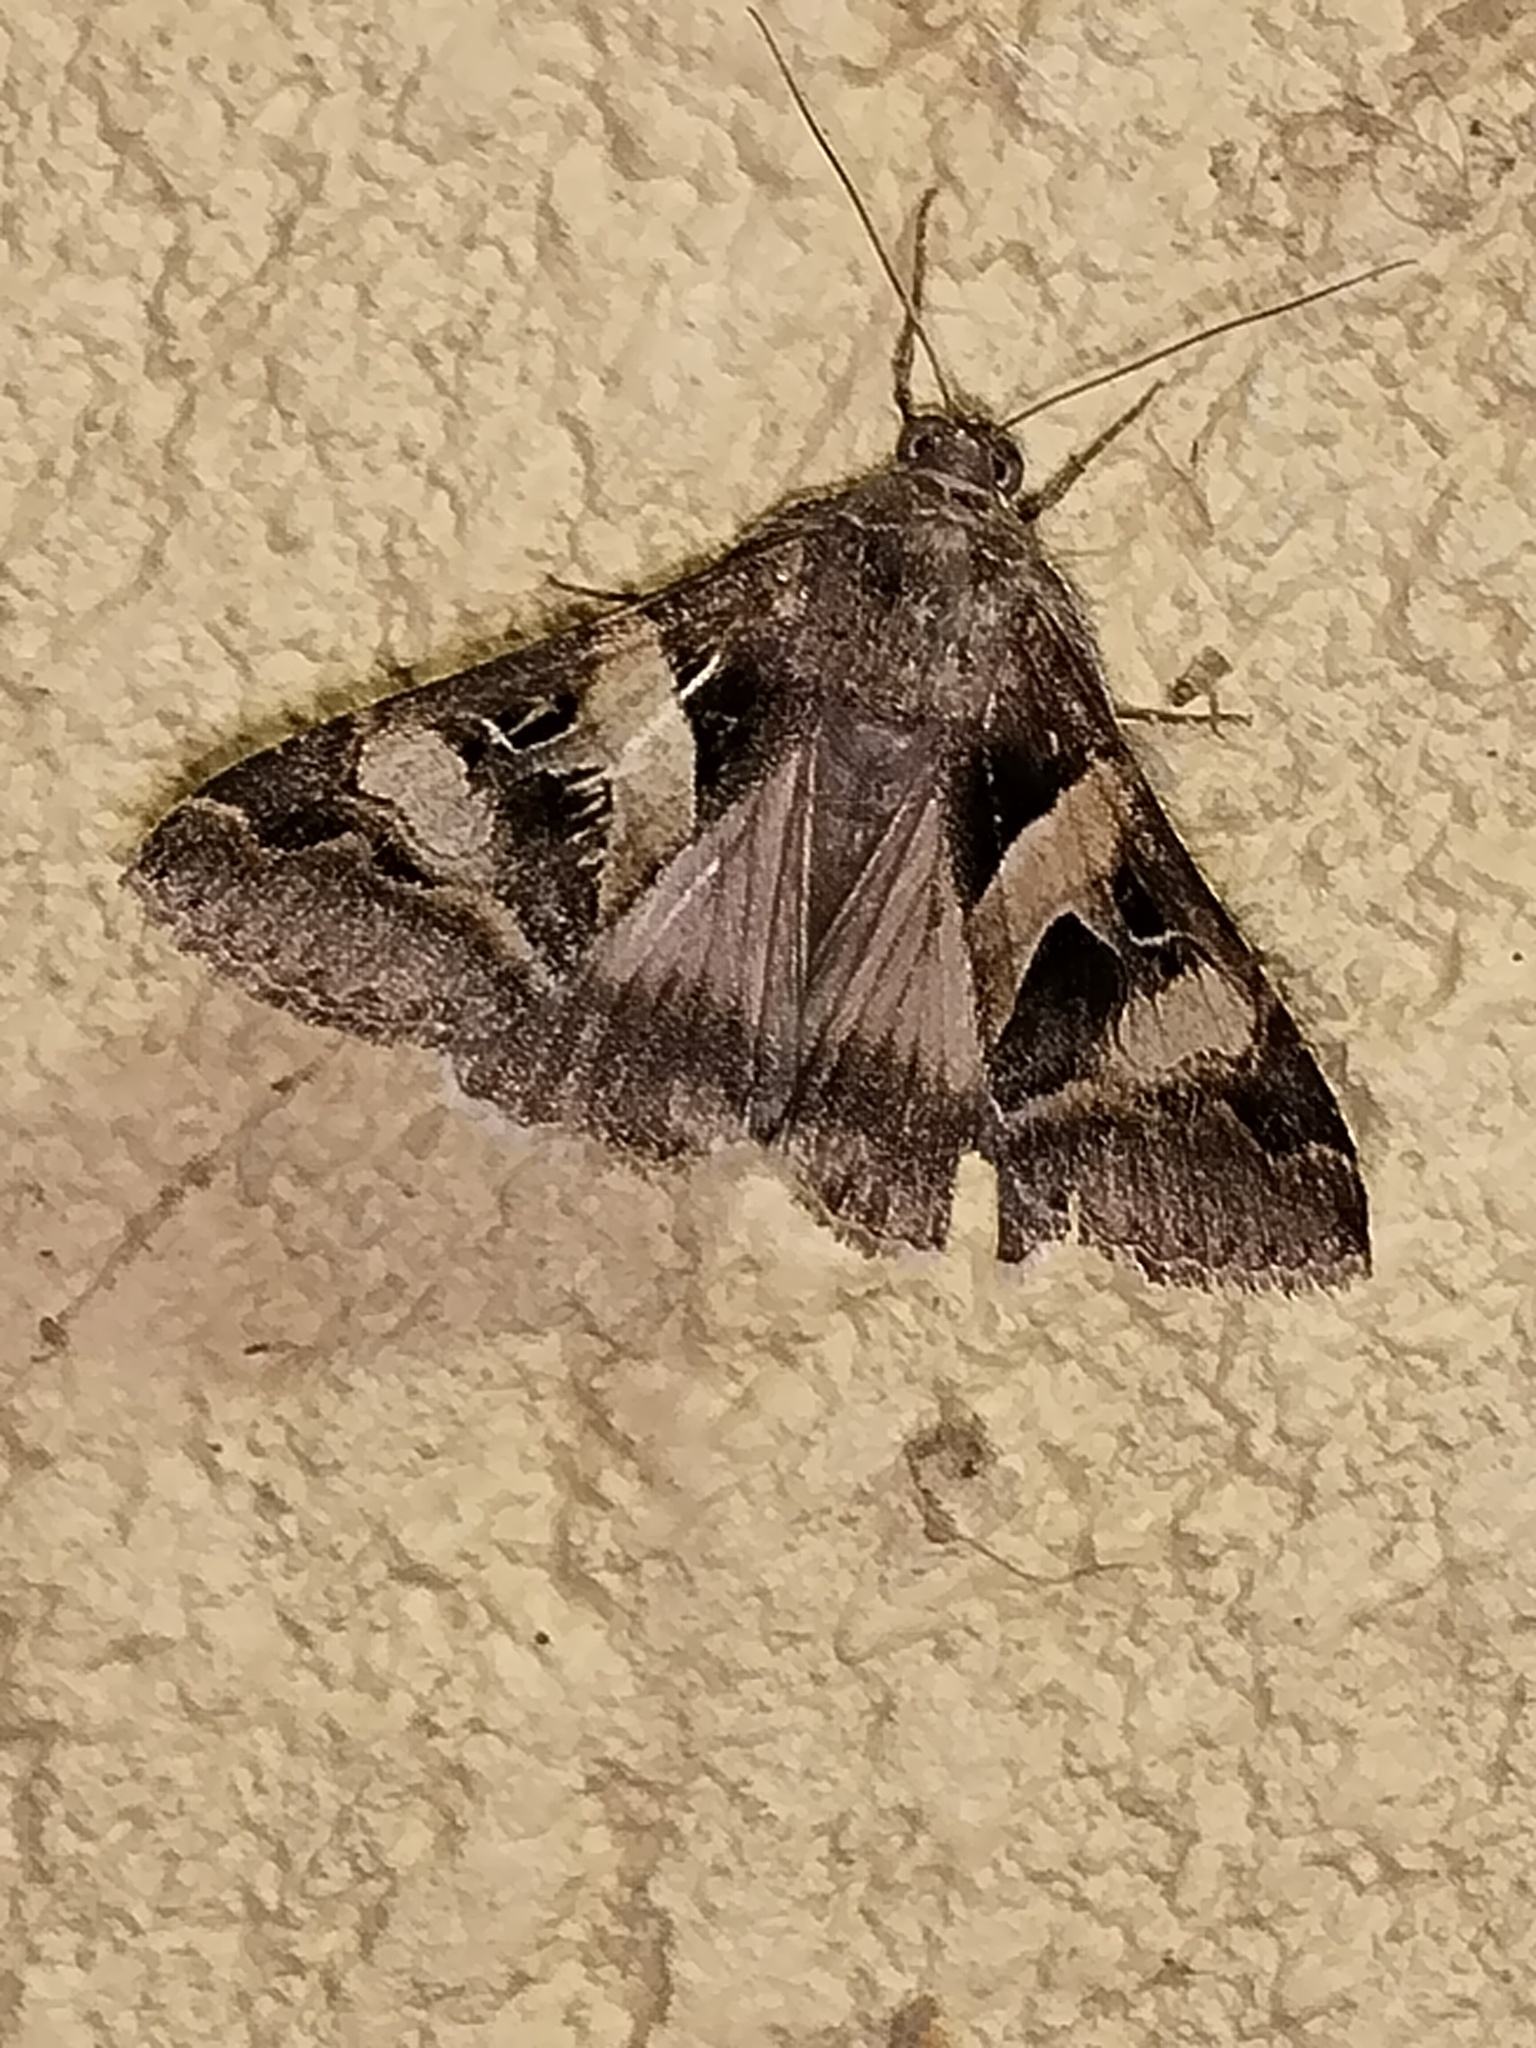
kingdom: Animalia
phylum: Arthropoda
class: Insecta
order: Lepidoptera
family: Erebidae
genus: Melipotis
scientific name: Melipotis perpendicularis
